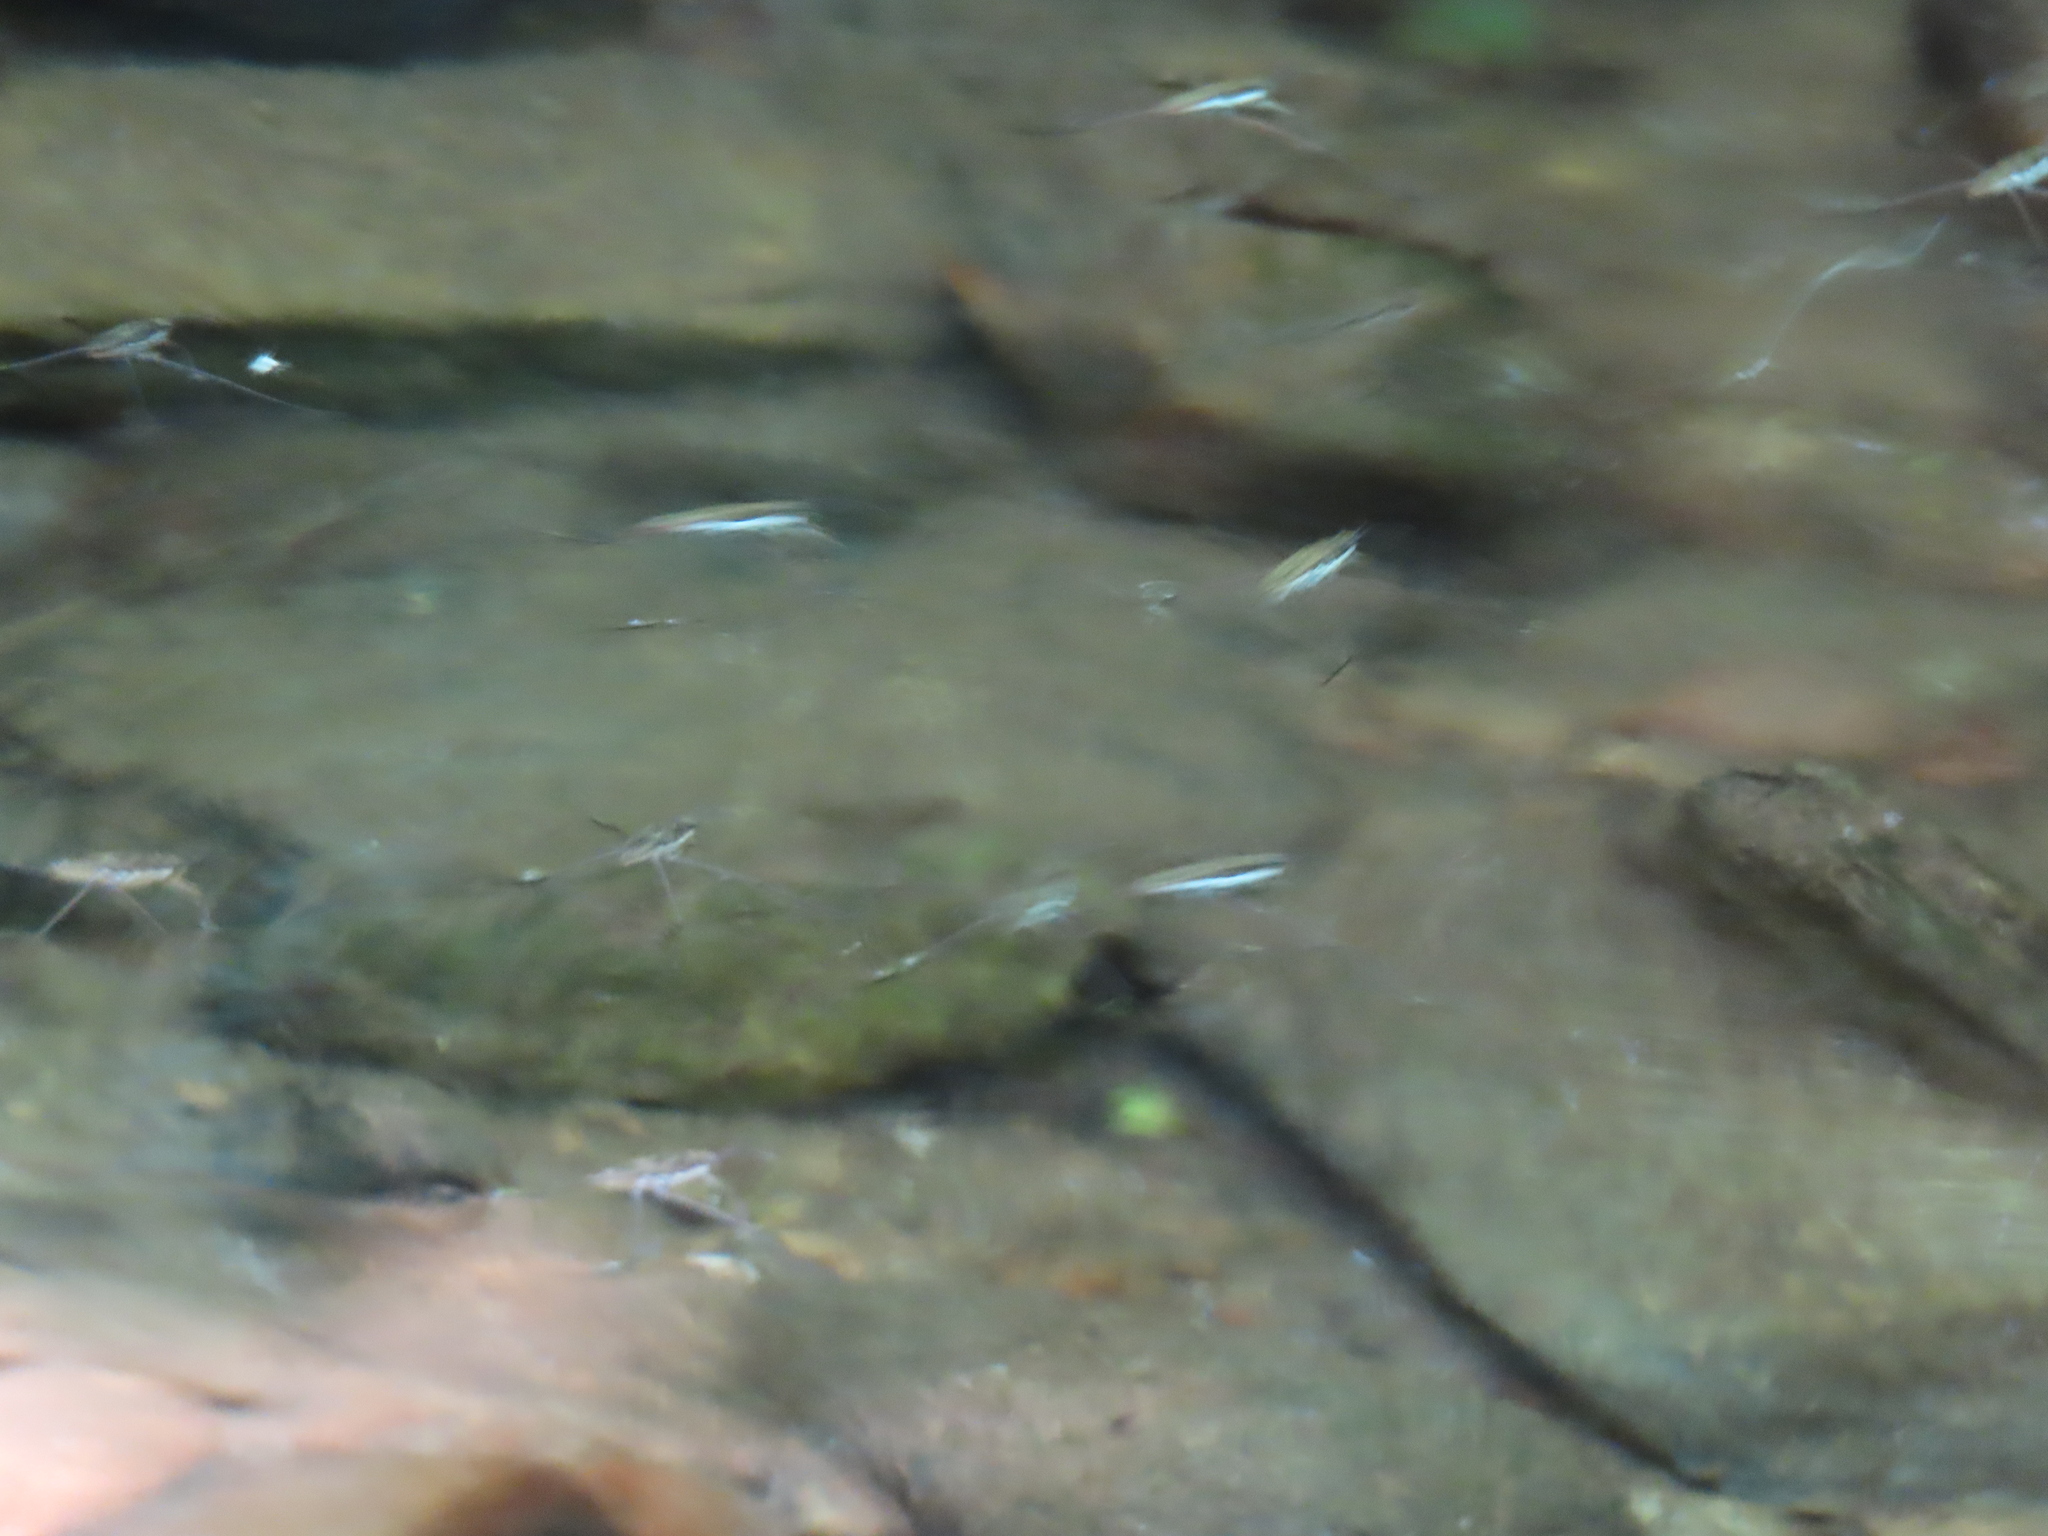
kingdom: Animalia
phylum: Arthropoda
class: Insecta
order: Hemiptera
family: Gerridae
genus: Aquarius
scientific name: Aquarius
